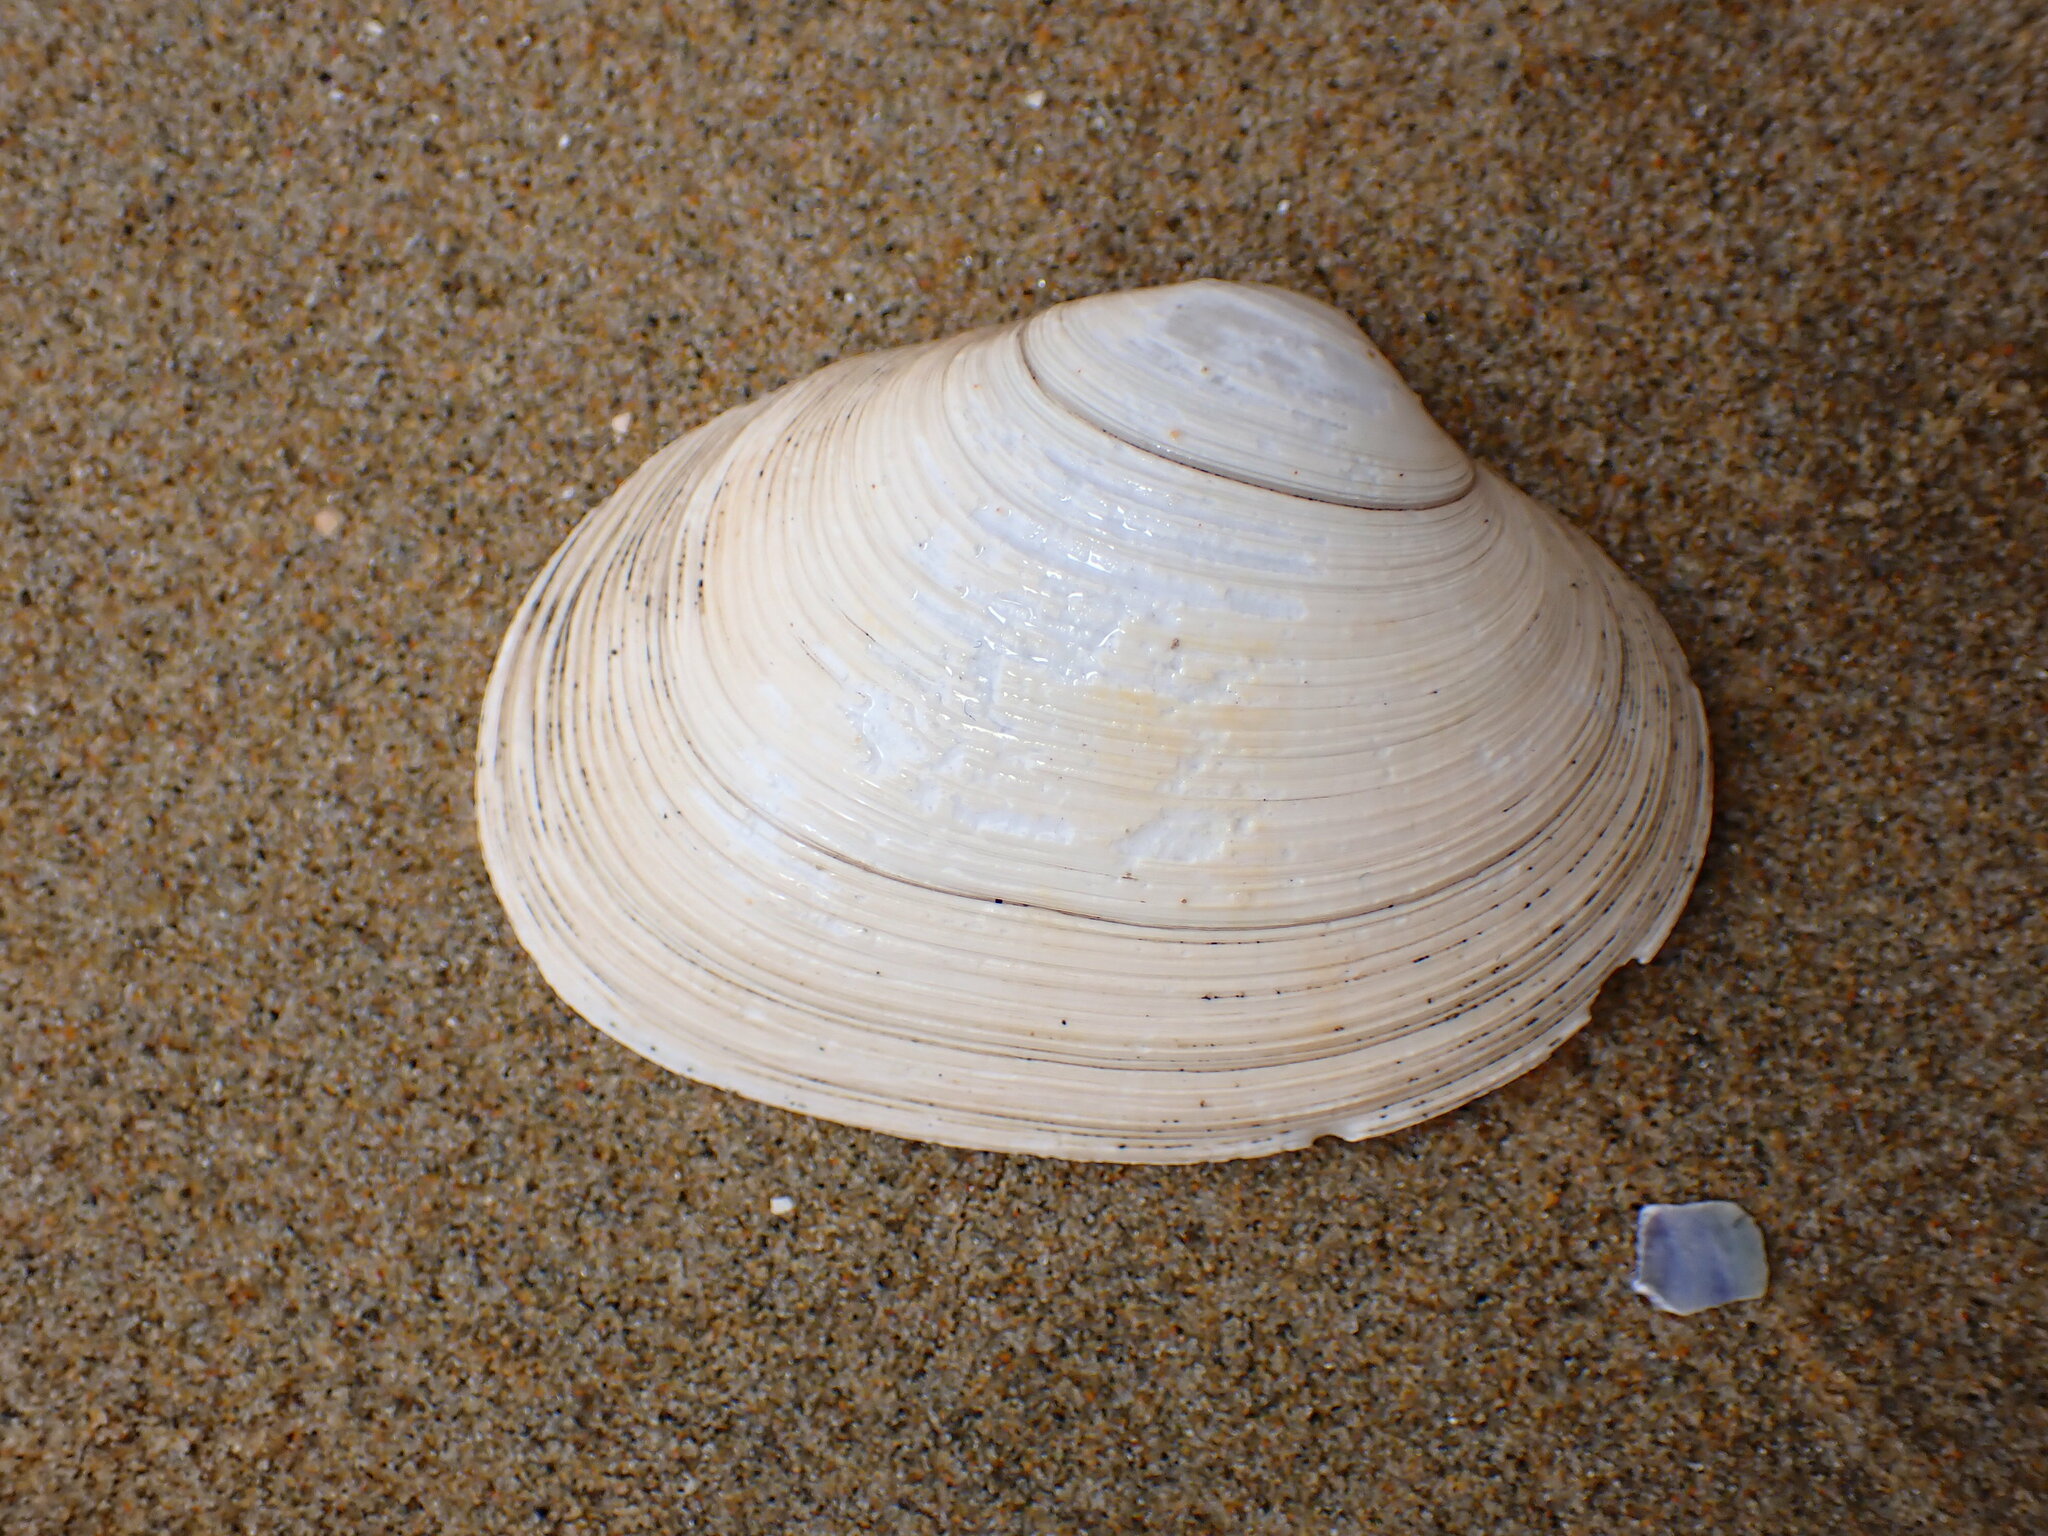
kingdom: Animalia
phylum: Mollusca
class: Bivalvia
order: Venerida
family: Veneridae
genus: Saxidomus
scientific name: Saxidomus nuttalli
